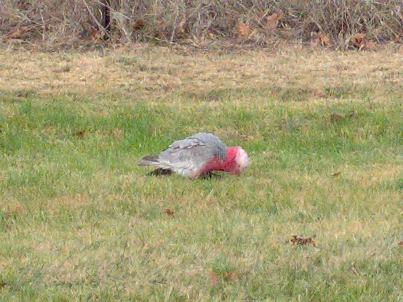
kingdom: Animalia
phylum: Chordata
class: Aves
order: Psittaciformes
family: Psittacidae
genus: Eolophus
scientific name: Eolophus roseicapilla
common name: Galah
